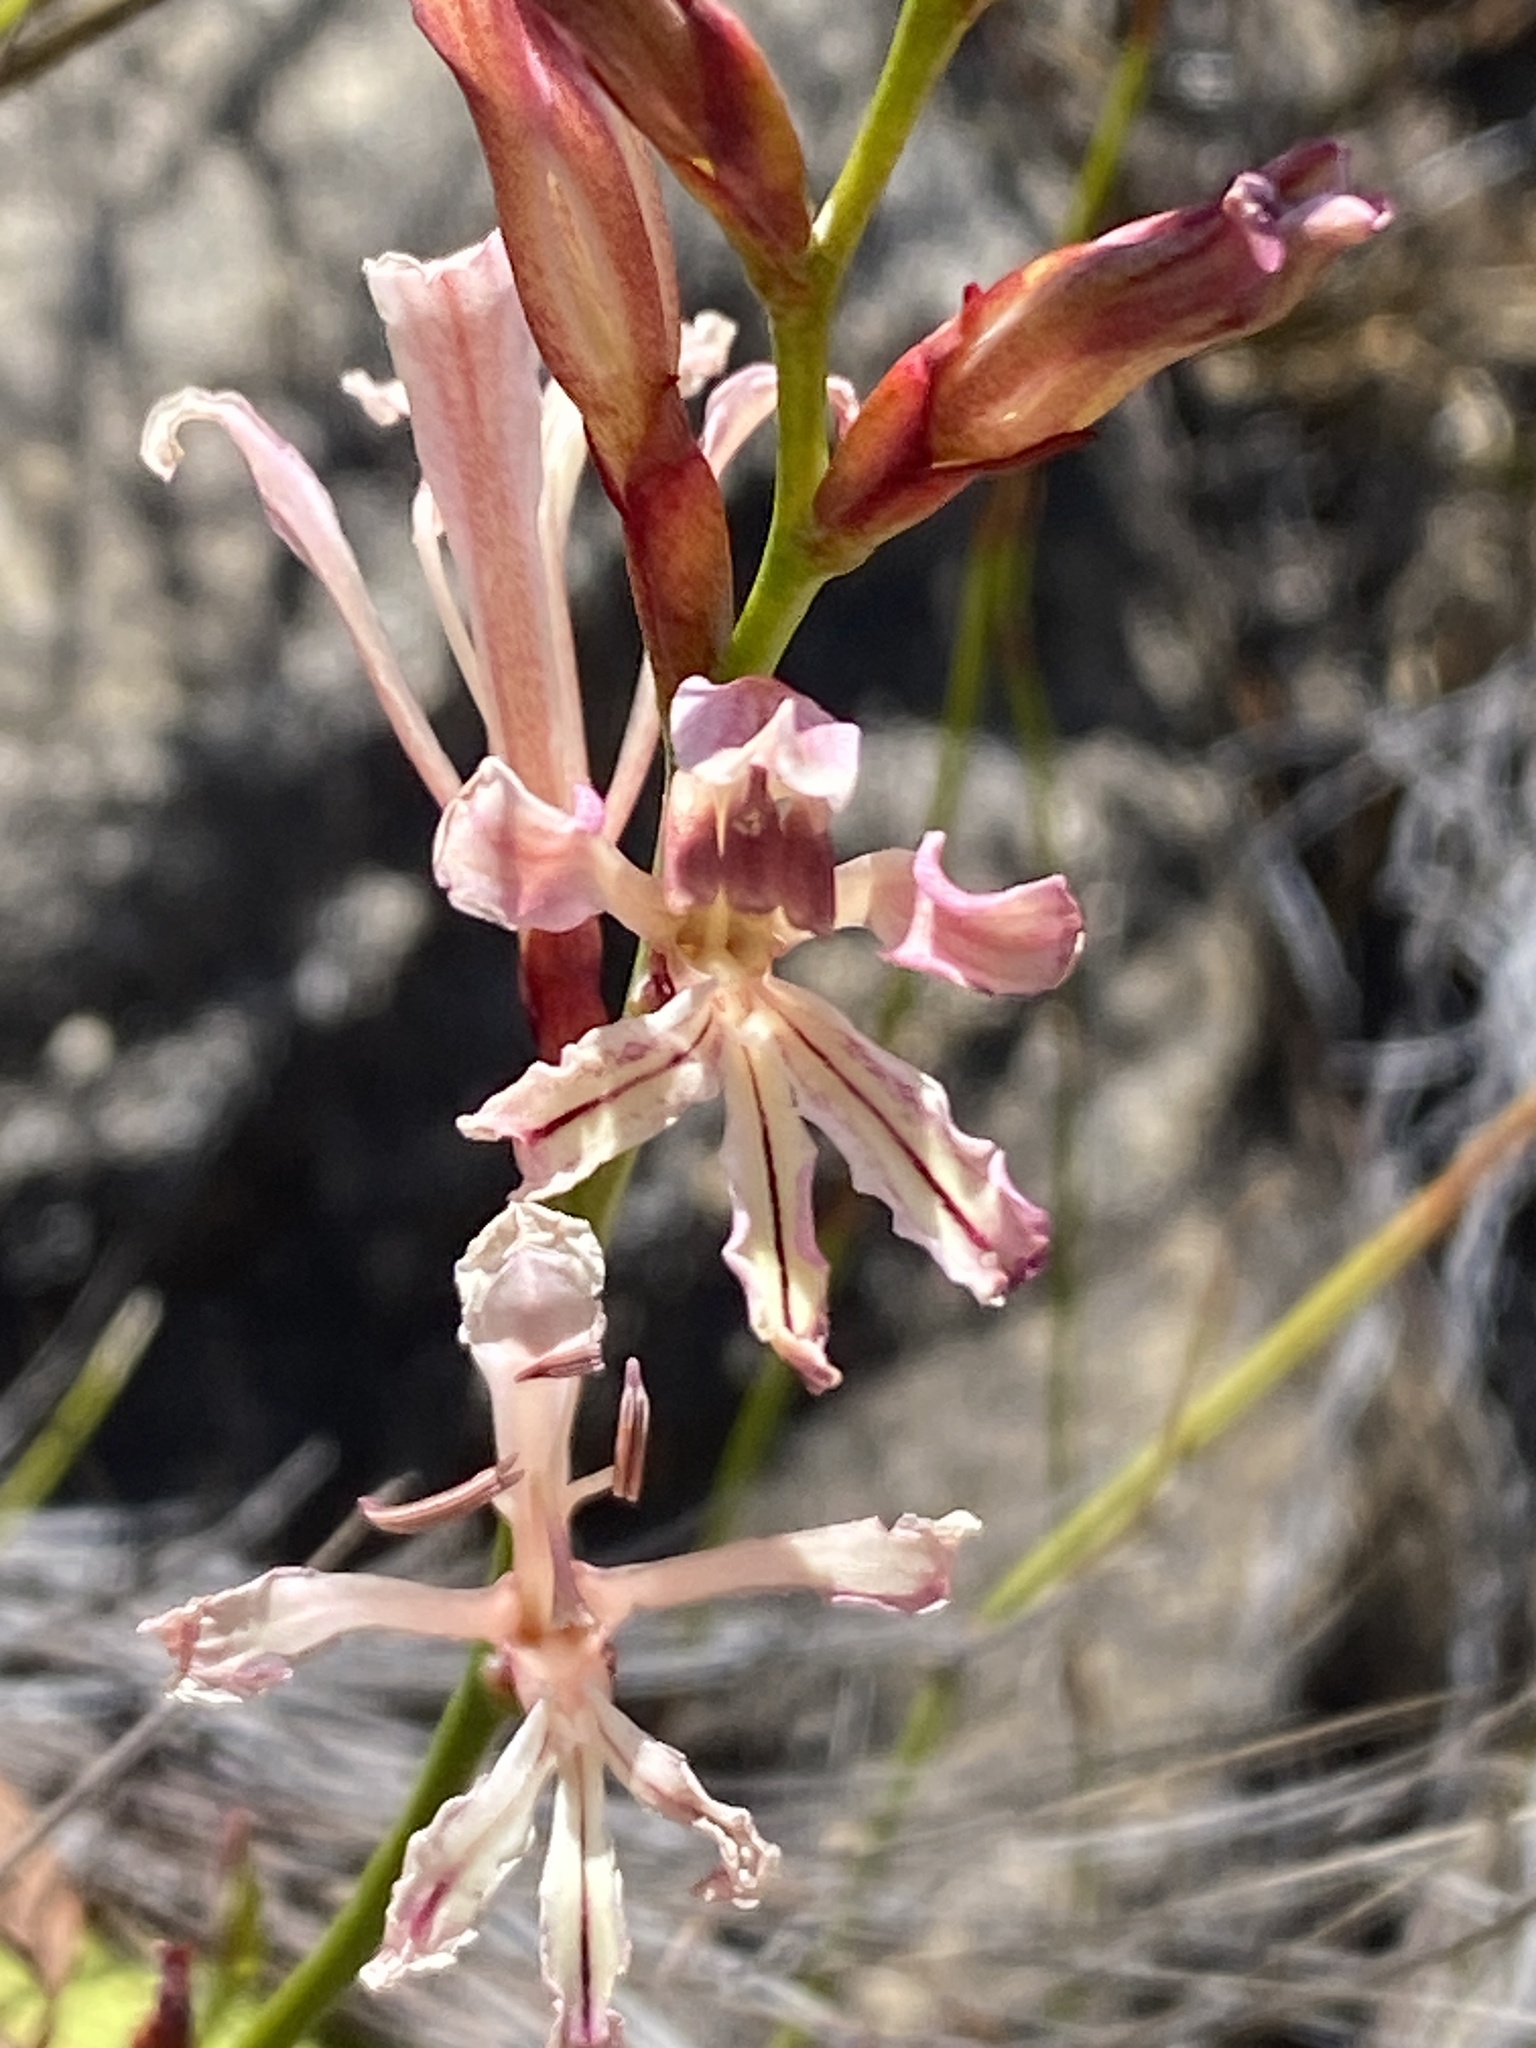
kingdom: Plantae
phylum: Tracheophyta
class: Liliopsida
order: Asparagales
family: Iridaceae
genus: Tritoniopsis
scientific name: Tritoniopsis latifolia
